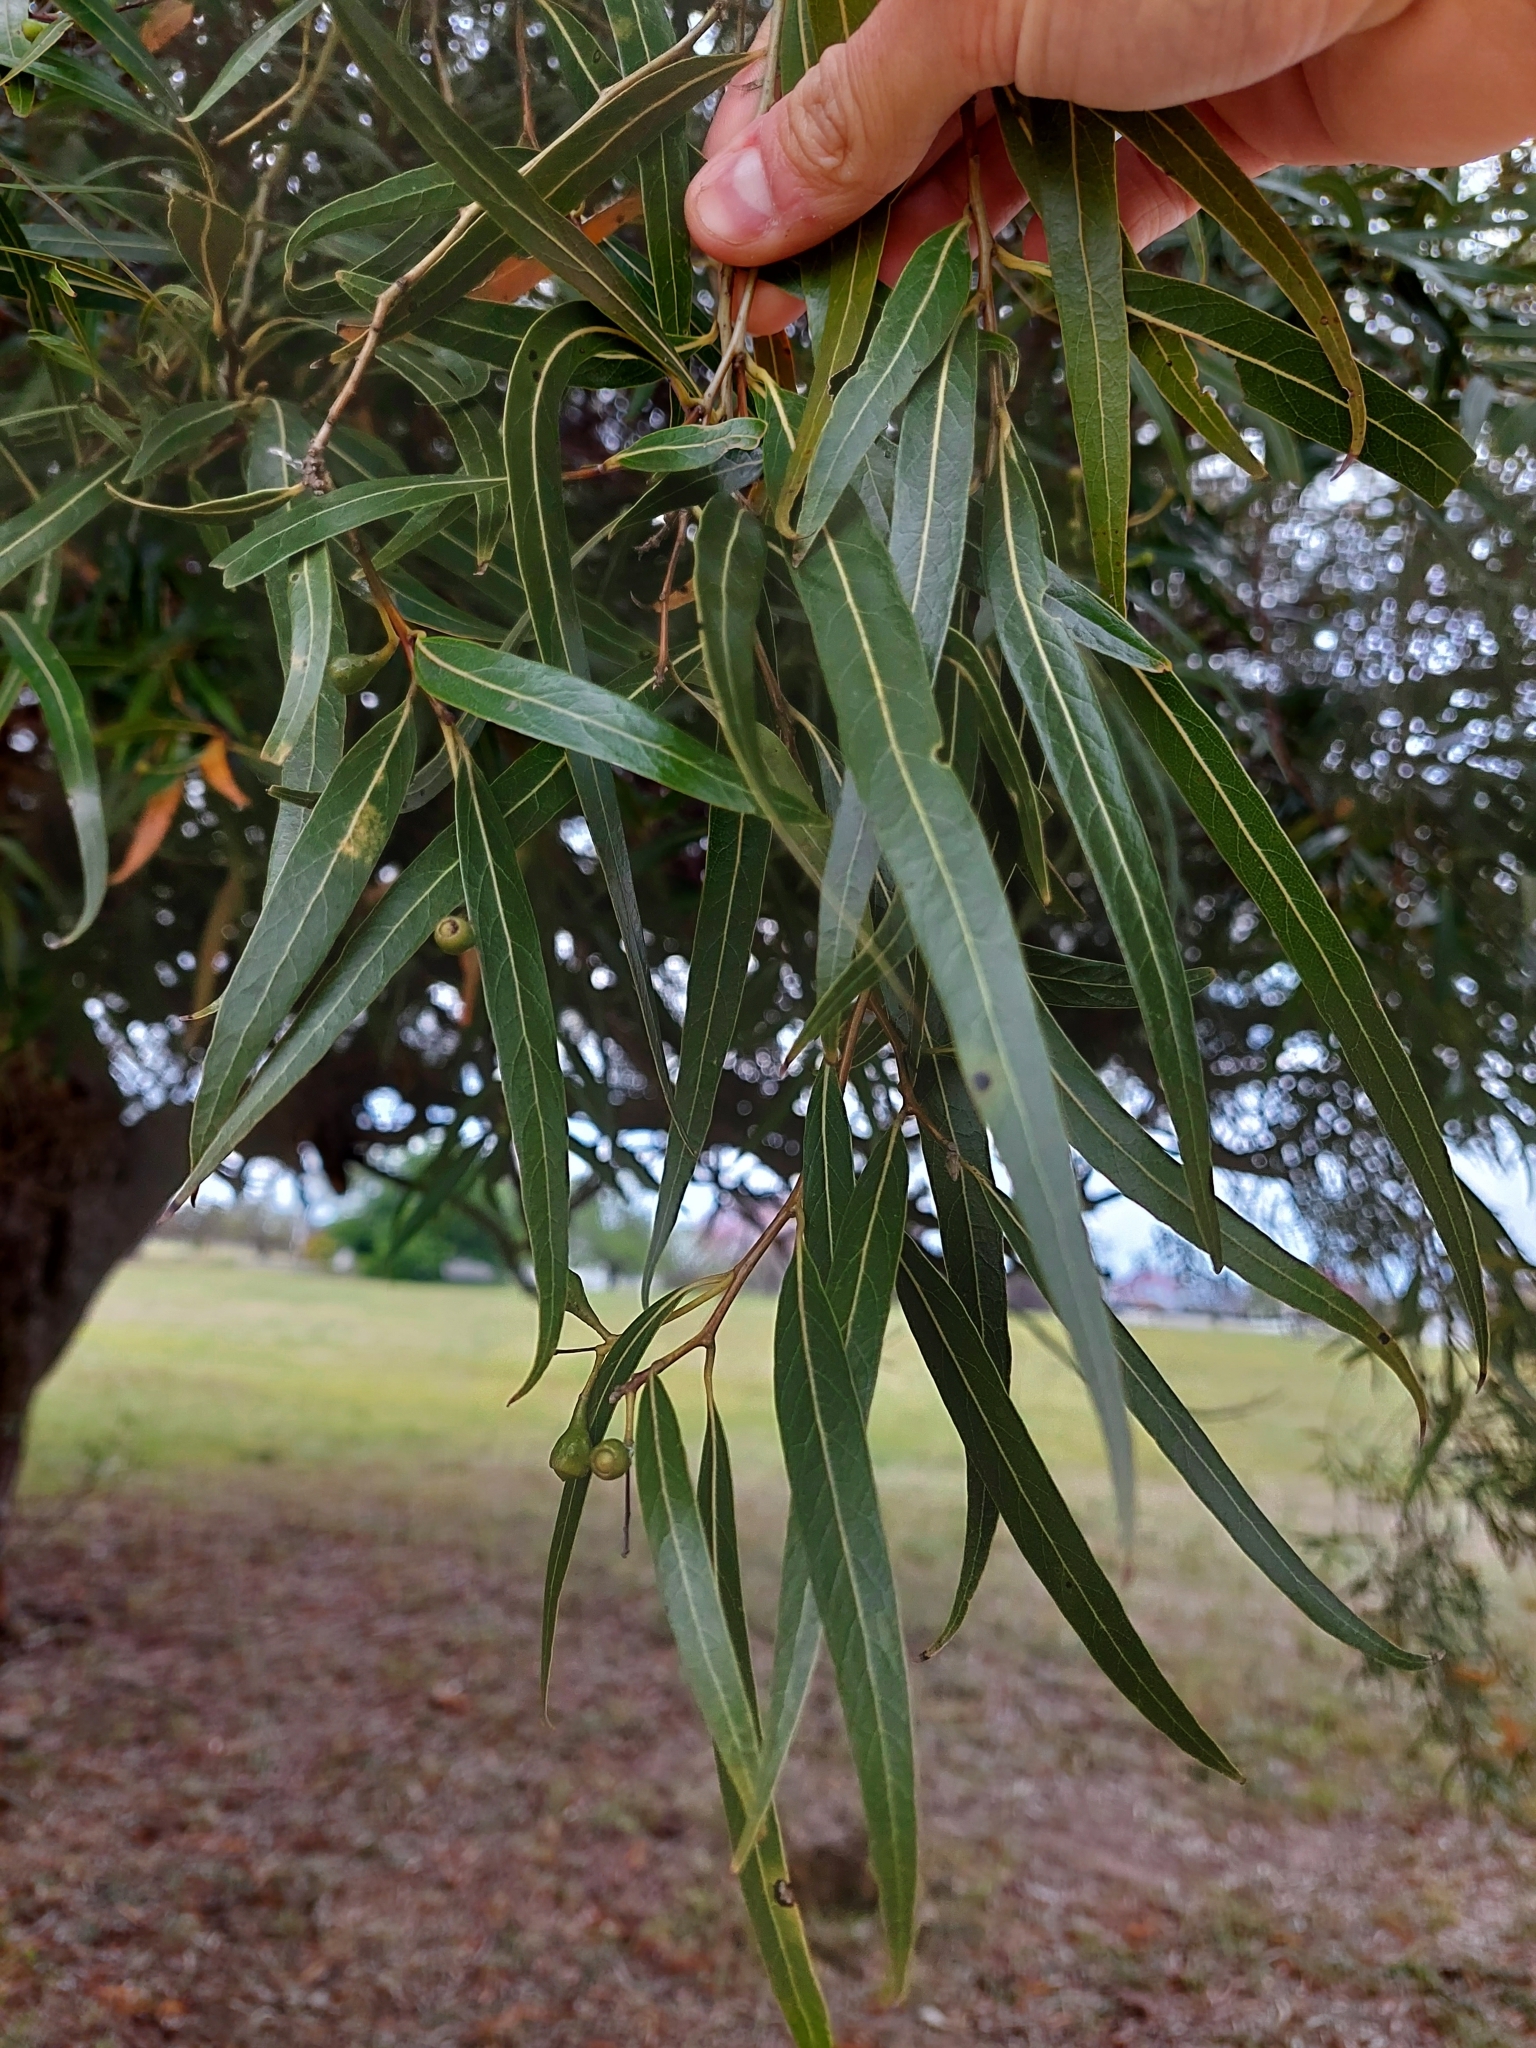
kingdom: Plantae
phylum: Tracheophyta
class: Magnoliopsida
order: Laurales
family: Lauraceae
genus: Nectandra
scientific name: Nectandra angustifolia
